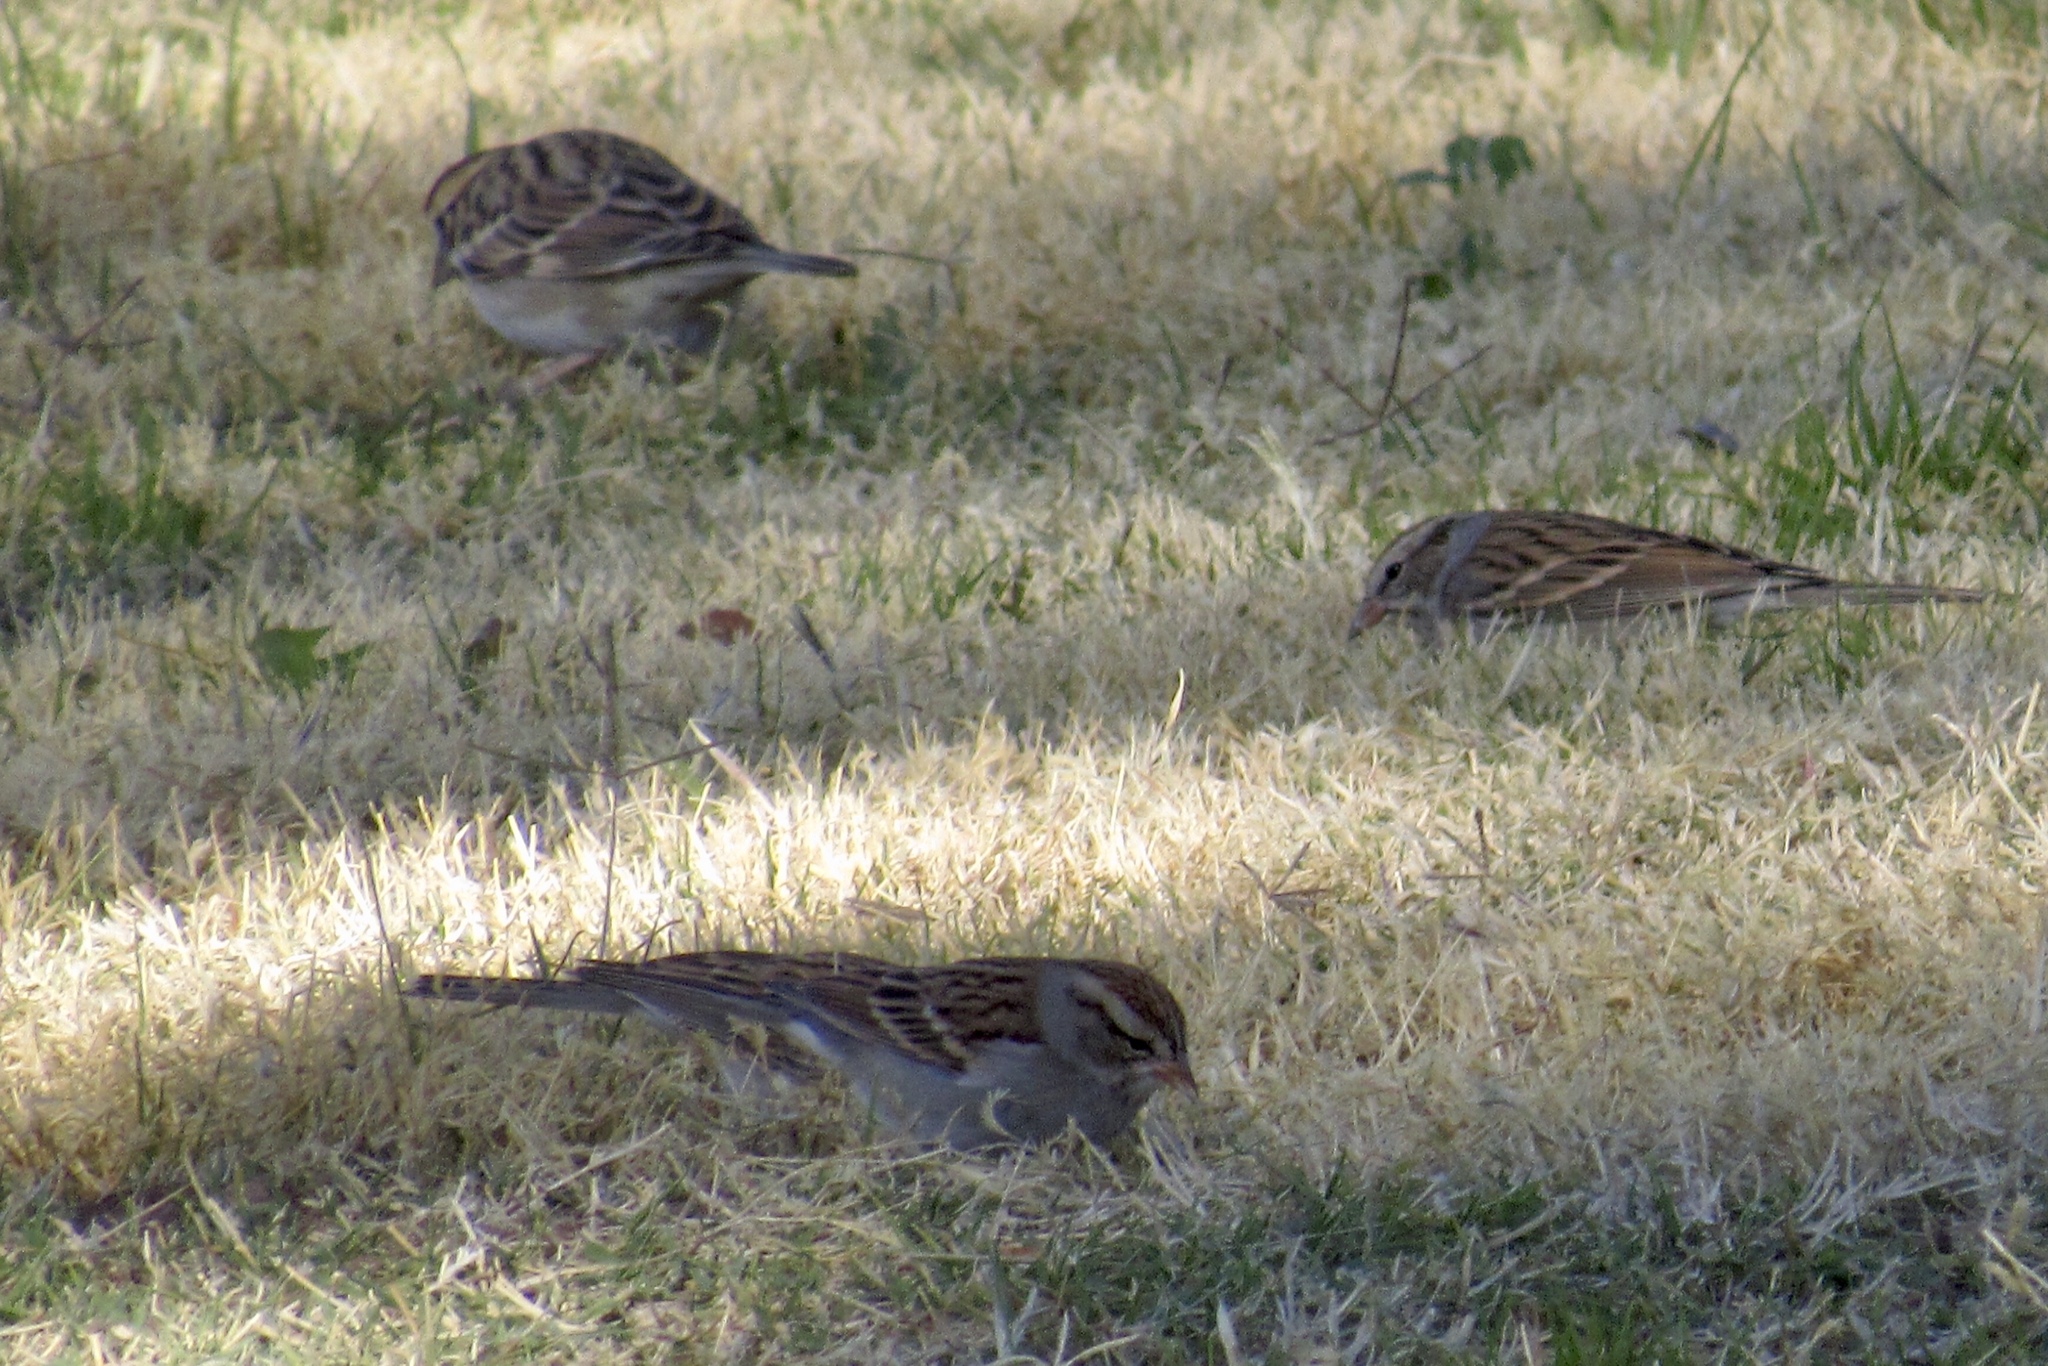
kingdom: Animalia
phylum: Chordata
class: Aves
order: Passeriformes
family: Passerellidae
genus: Spizella
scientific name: Spizella passerina
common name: Chipping sparrow
